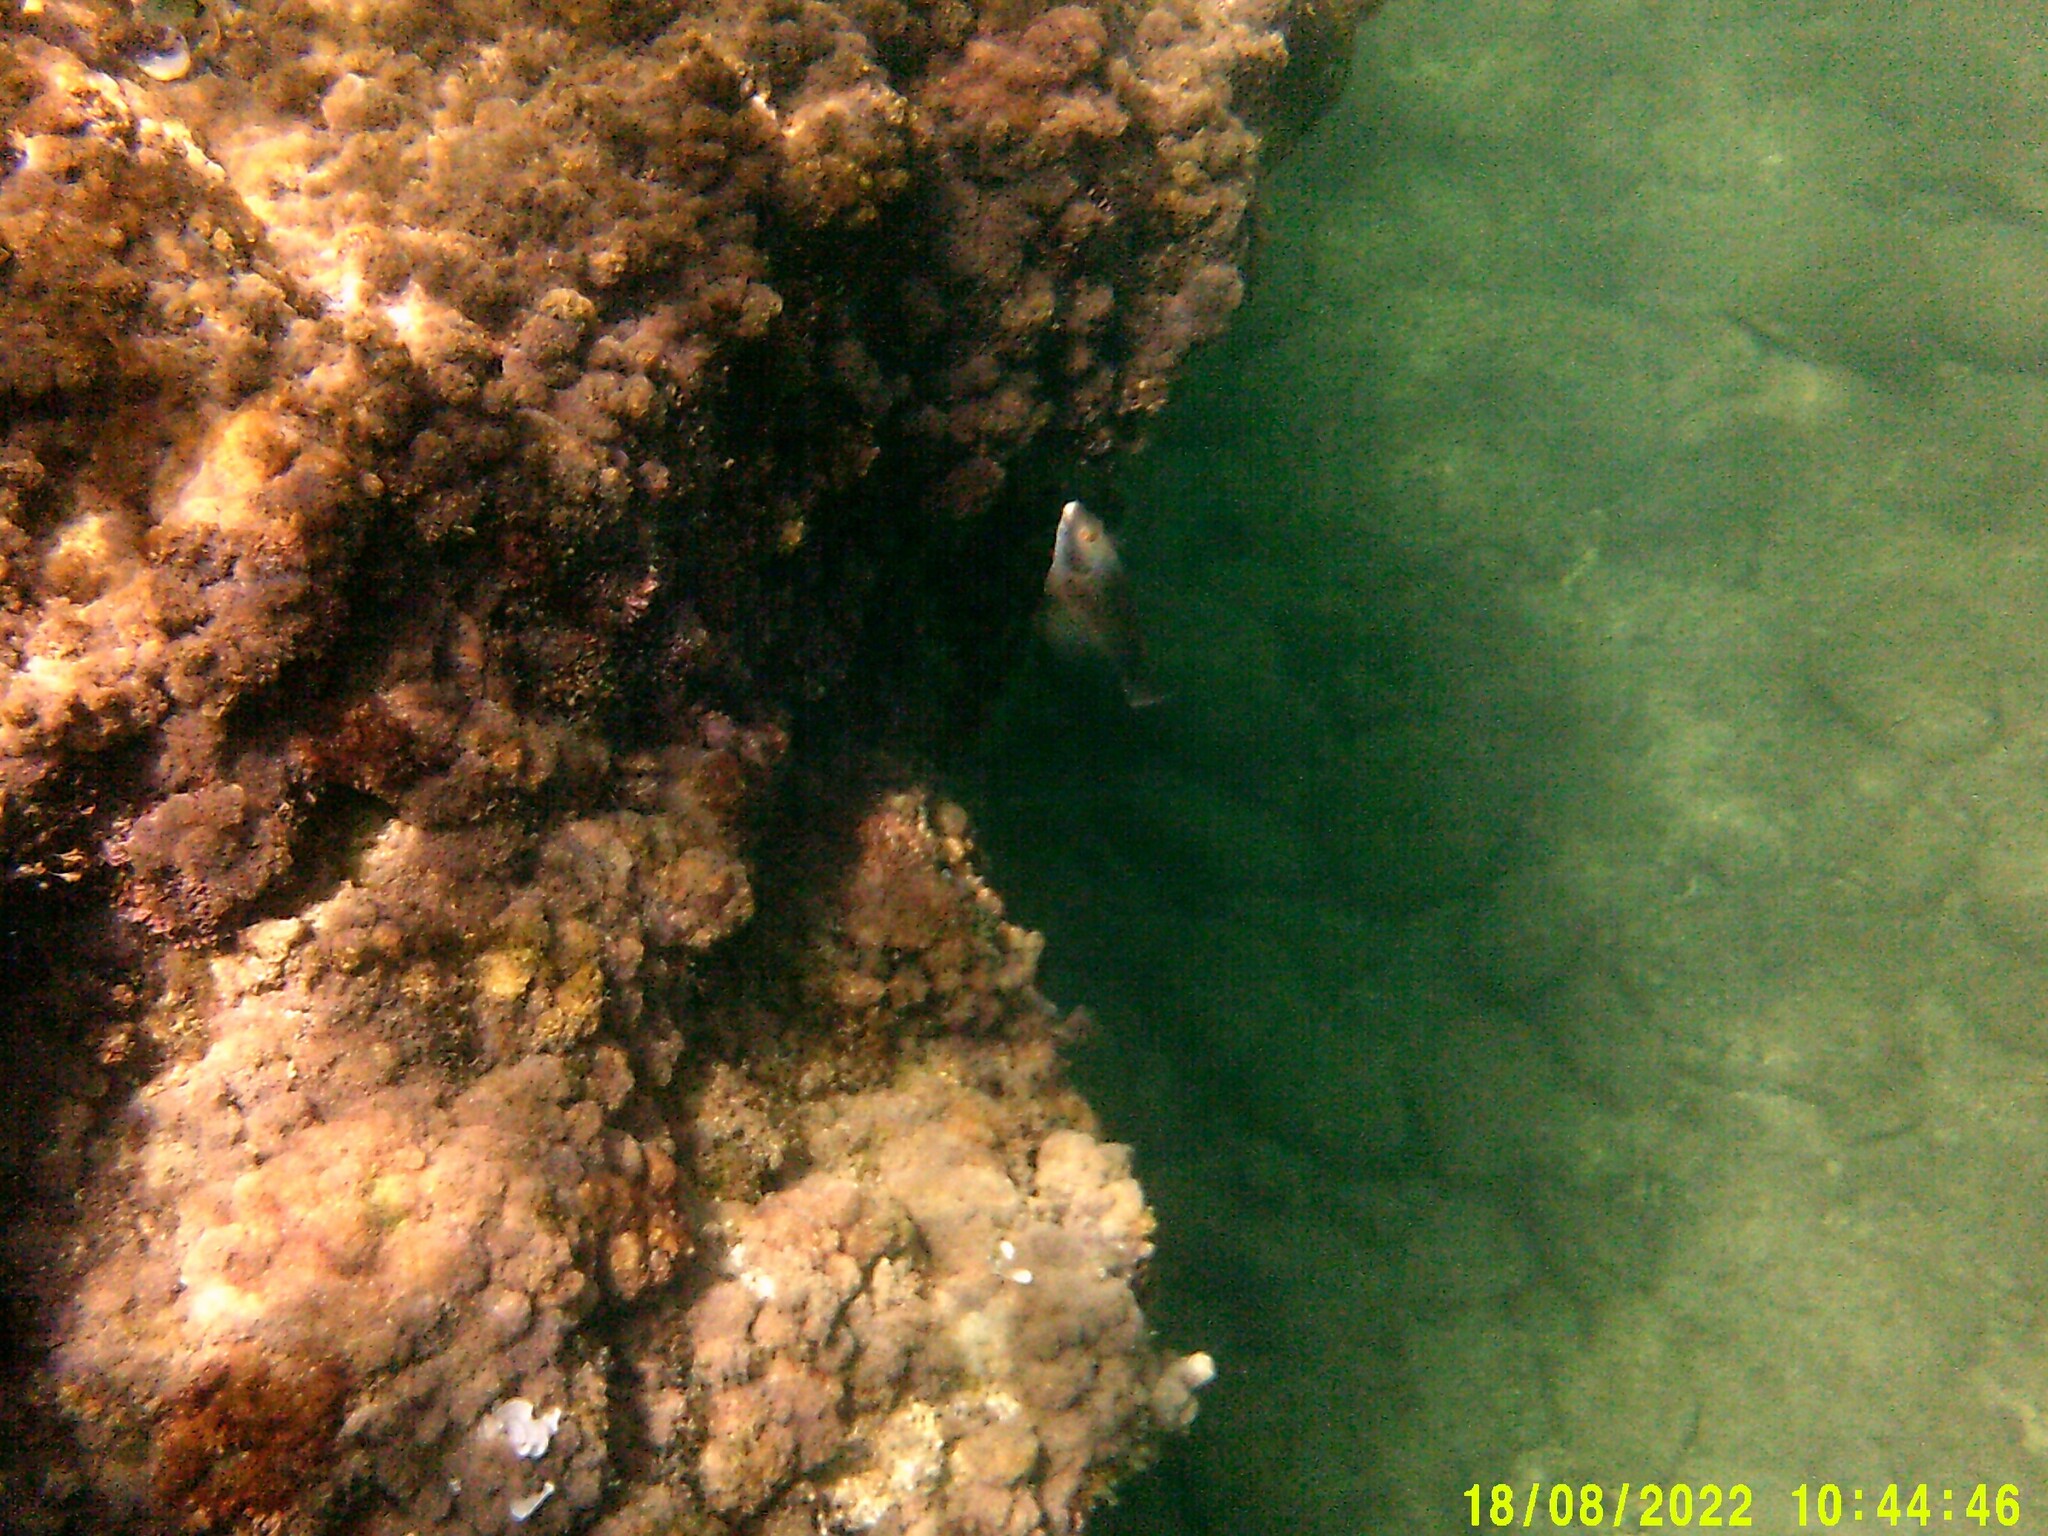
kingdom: Animalia
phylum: Chordata
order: Perciformes
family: Scaridae
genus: Sparisoma
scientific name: Sparisoma cretense
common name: Parrotfish
